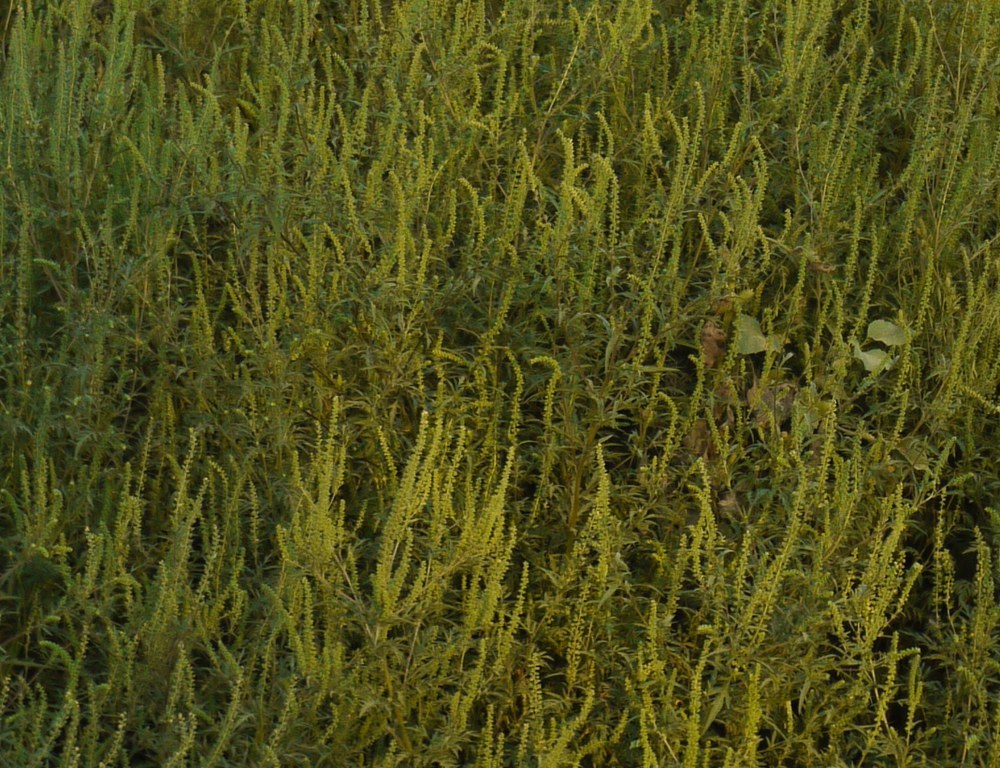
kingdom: Plantae
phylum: Tracheophyta
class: Magnoliopsida
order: Asterales
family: Asteraceae
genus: Ambrosia
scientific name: Ambrosia artemisiifolia
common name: Annual ragweed
